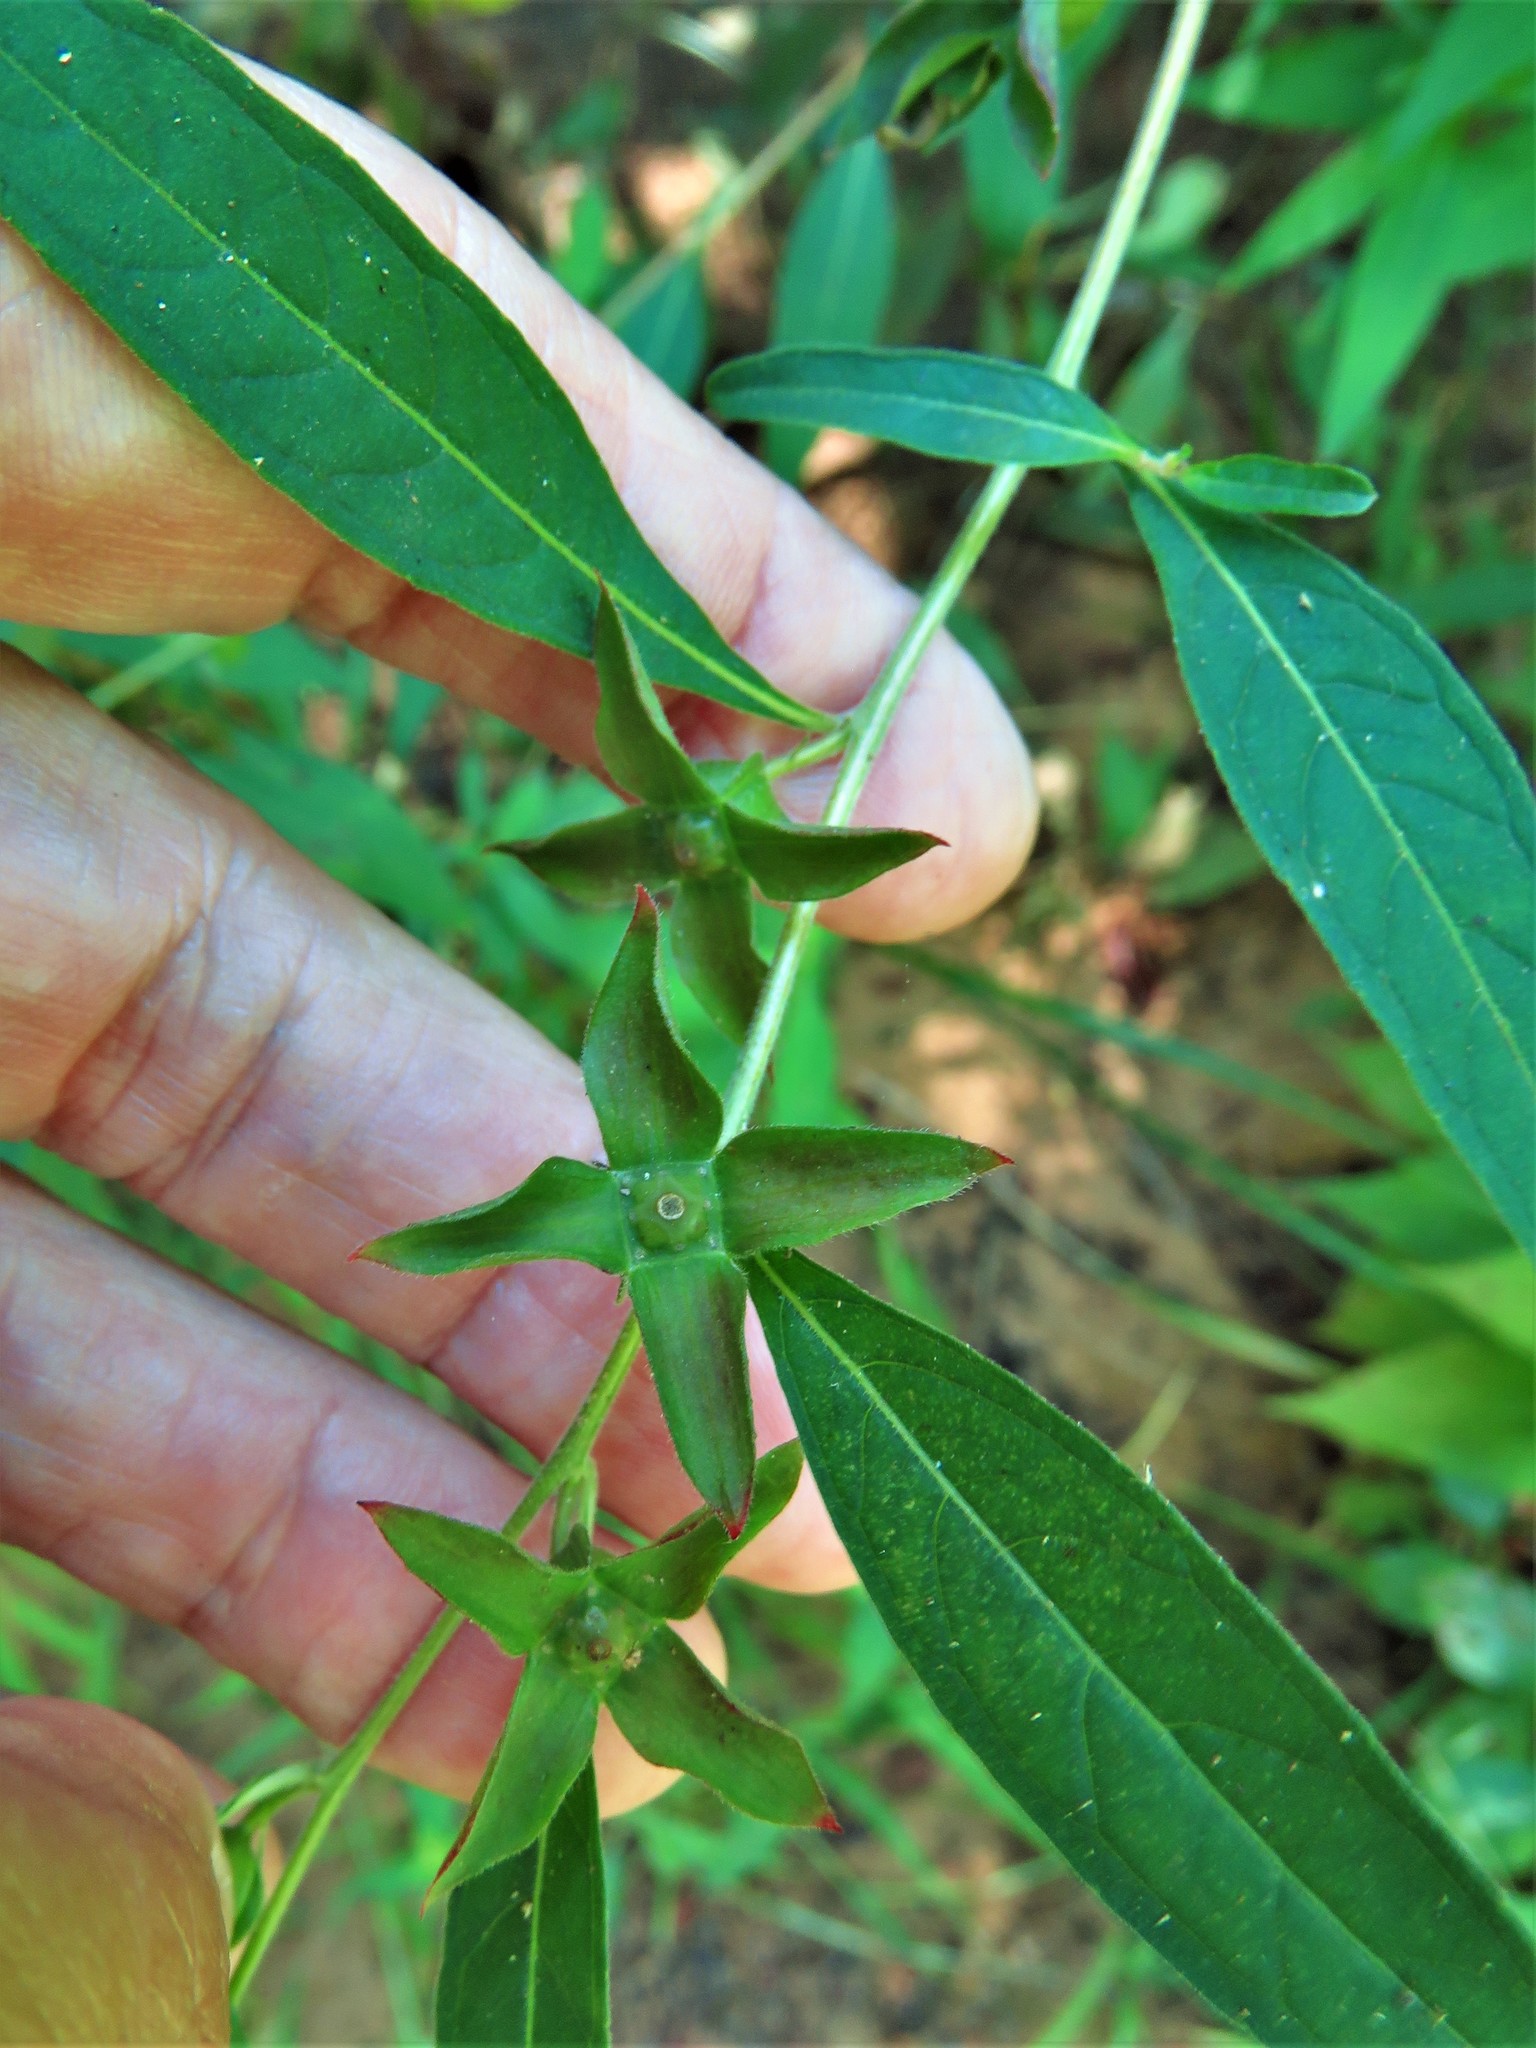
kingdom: Plantae
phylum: Tracheophyta
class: Magnoliopsida
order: Myrtales
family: Onagraceae
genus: Ludwigia
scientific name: Ludwigia alternifolia
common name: Rattlebox
